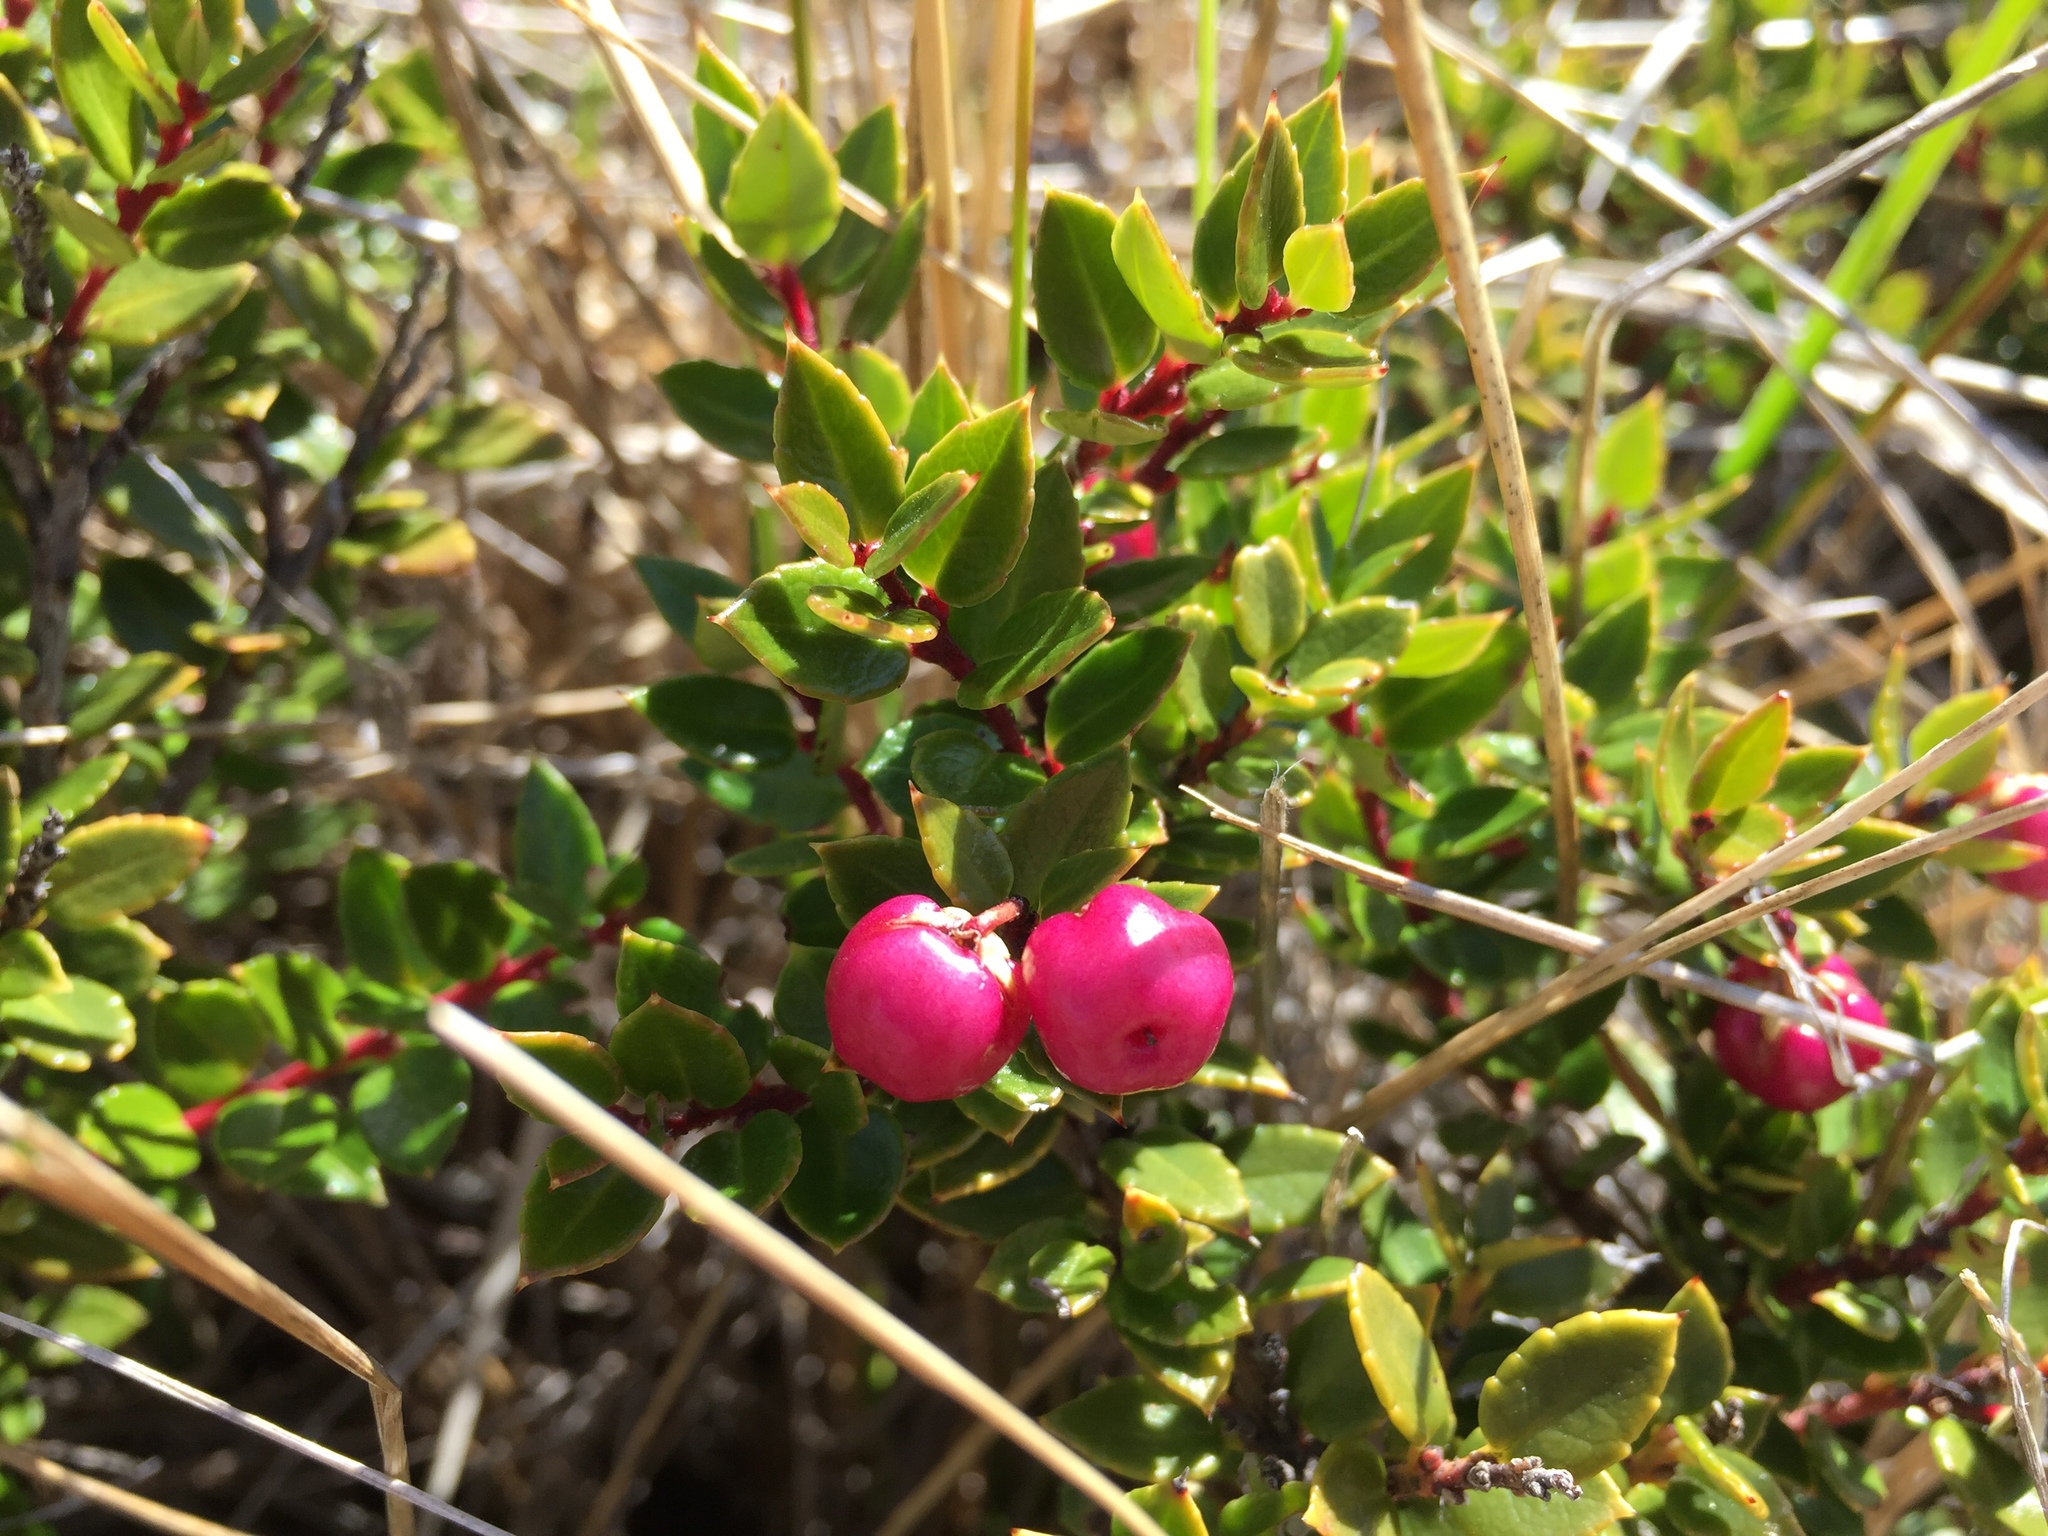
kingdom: Plantae
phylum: Tracheophyta
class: Magnoliopsida
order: Ericales
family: Ericaceae
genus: Gaultheria
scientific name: Gaultheria mucronata
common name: Prickly heath
